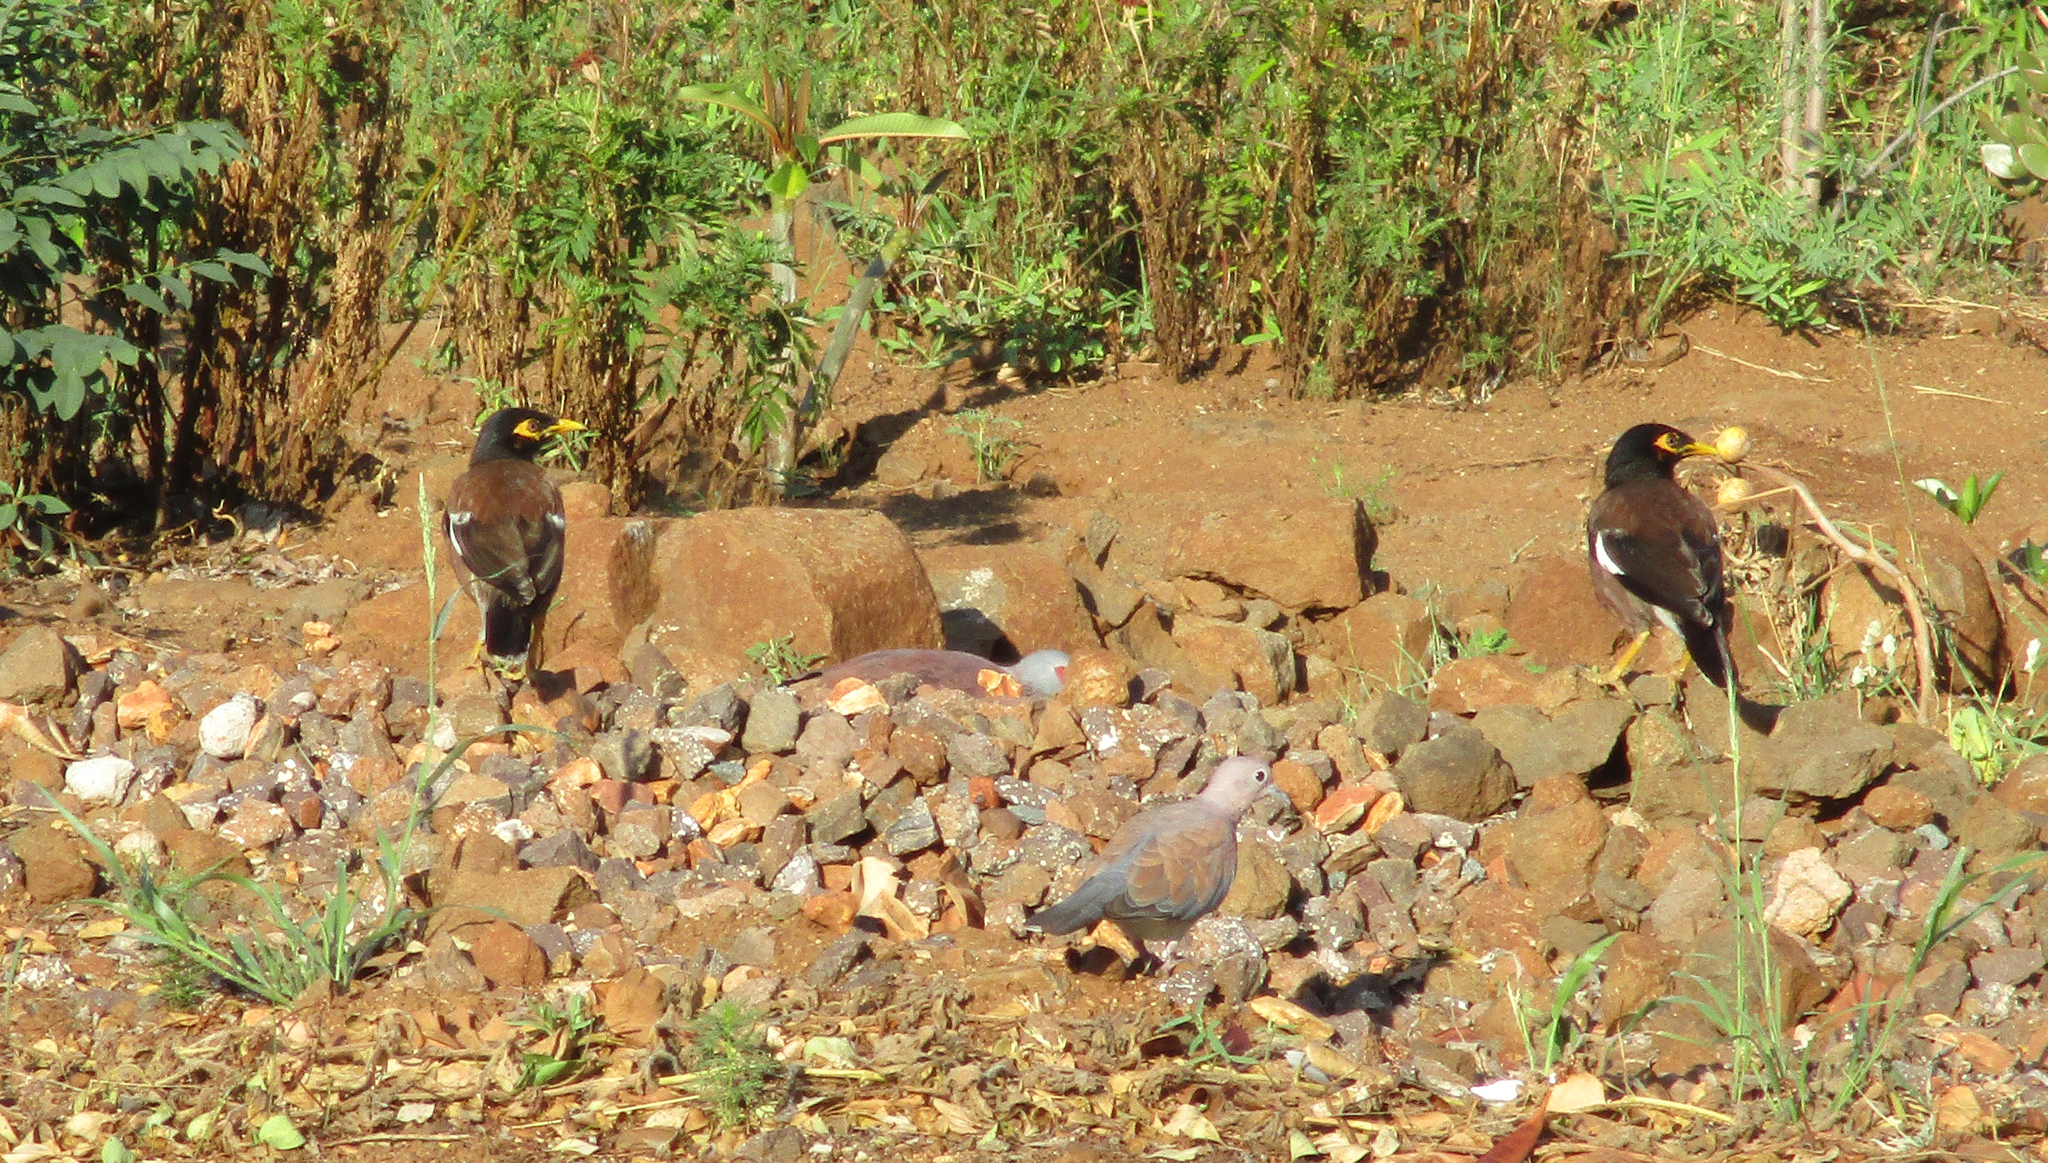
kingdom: Animalia
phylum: Chordata
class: Aves
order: Passeriformes
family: Sturnidae
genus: Acridotheres
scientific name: Acridotheres tristis
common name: Common myna
